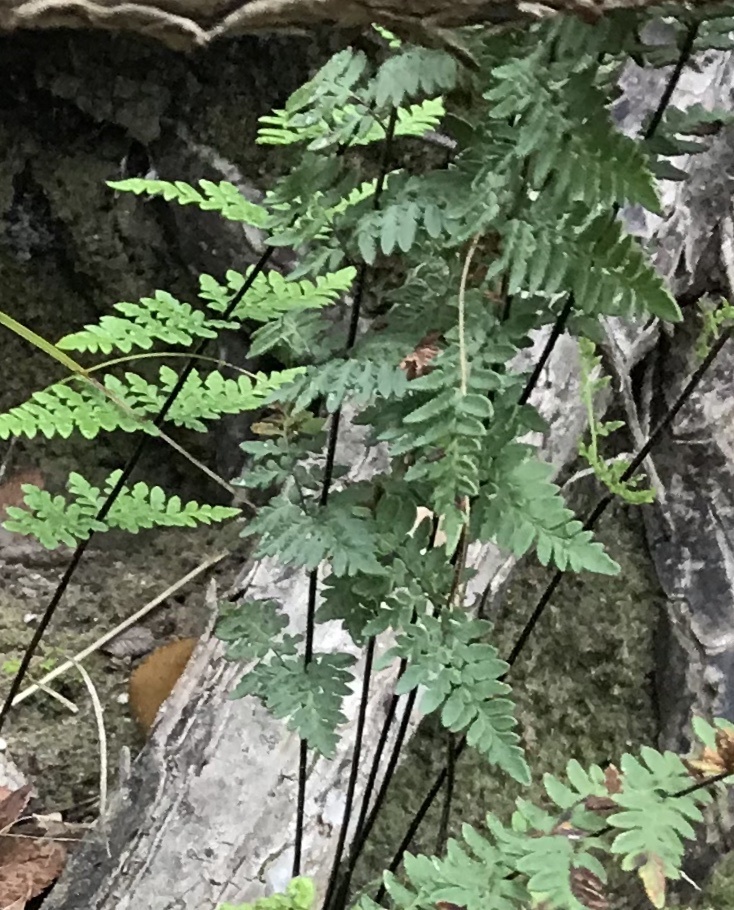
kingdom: Plantae
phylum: Tracheophyta
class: Polypodiopsida
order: Polypodiales
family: Pteridaceae
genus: Myriopteris
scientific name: Myriopteris alabamensis
